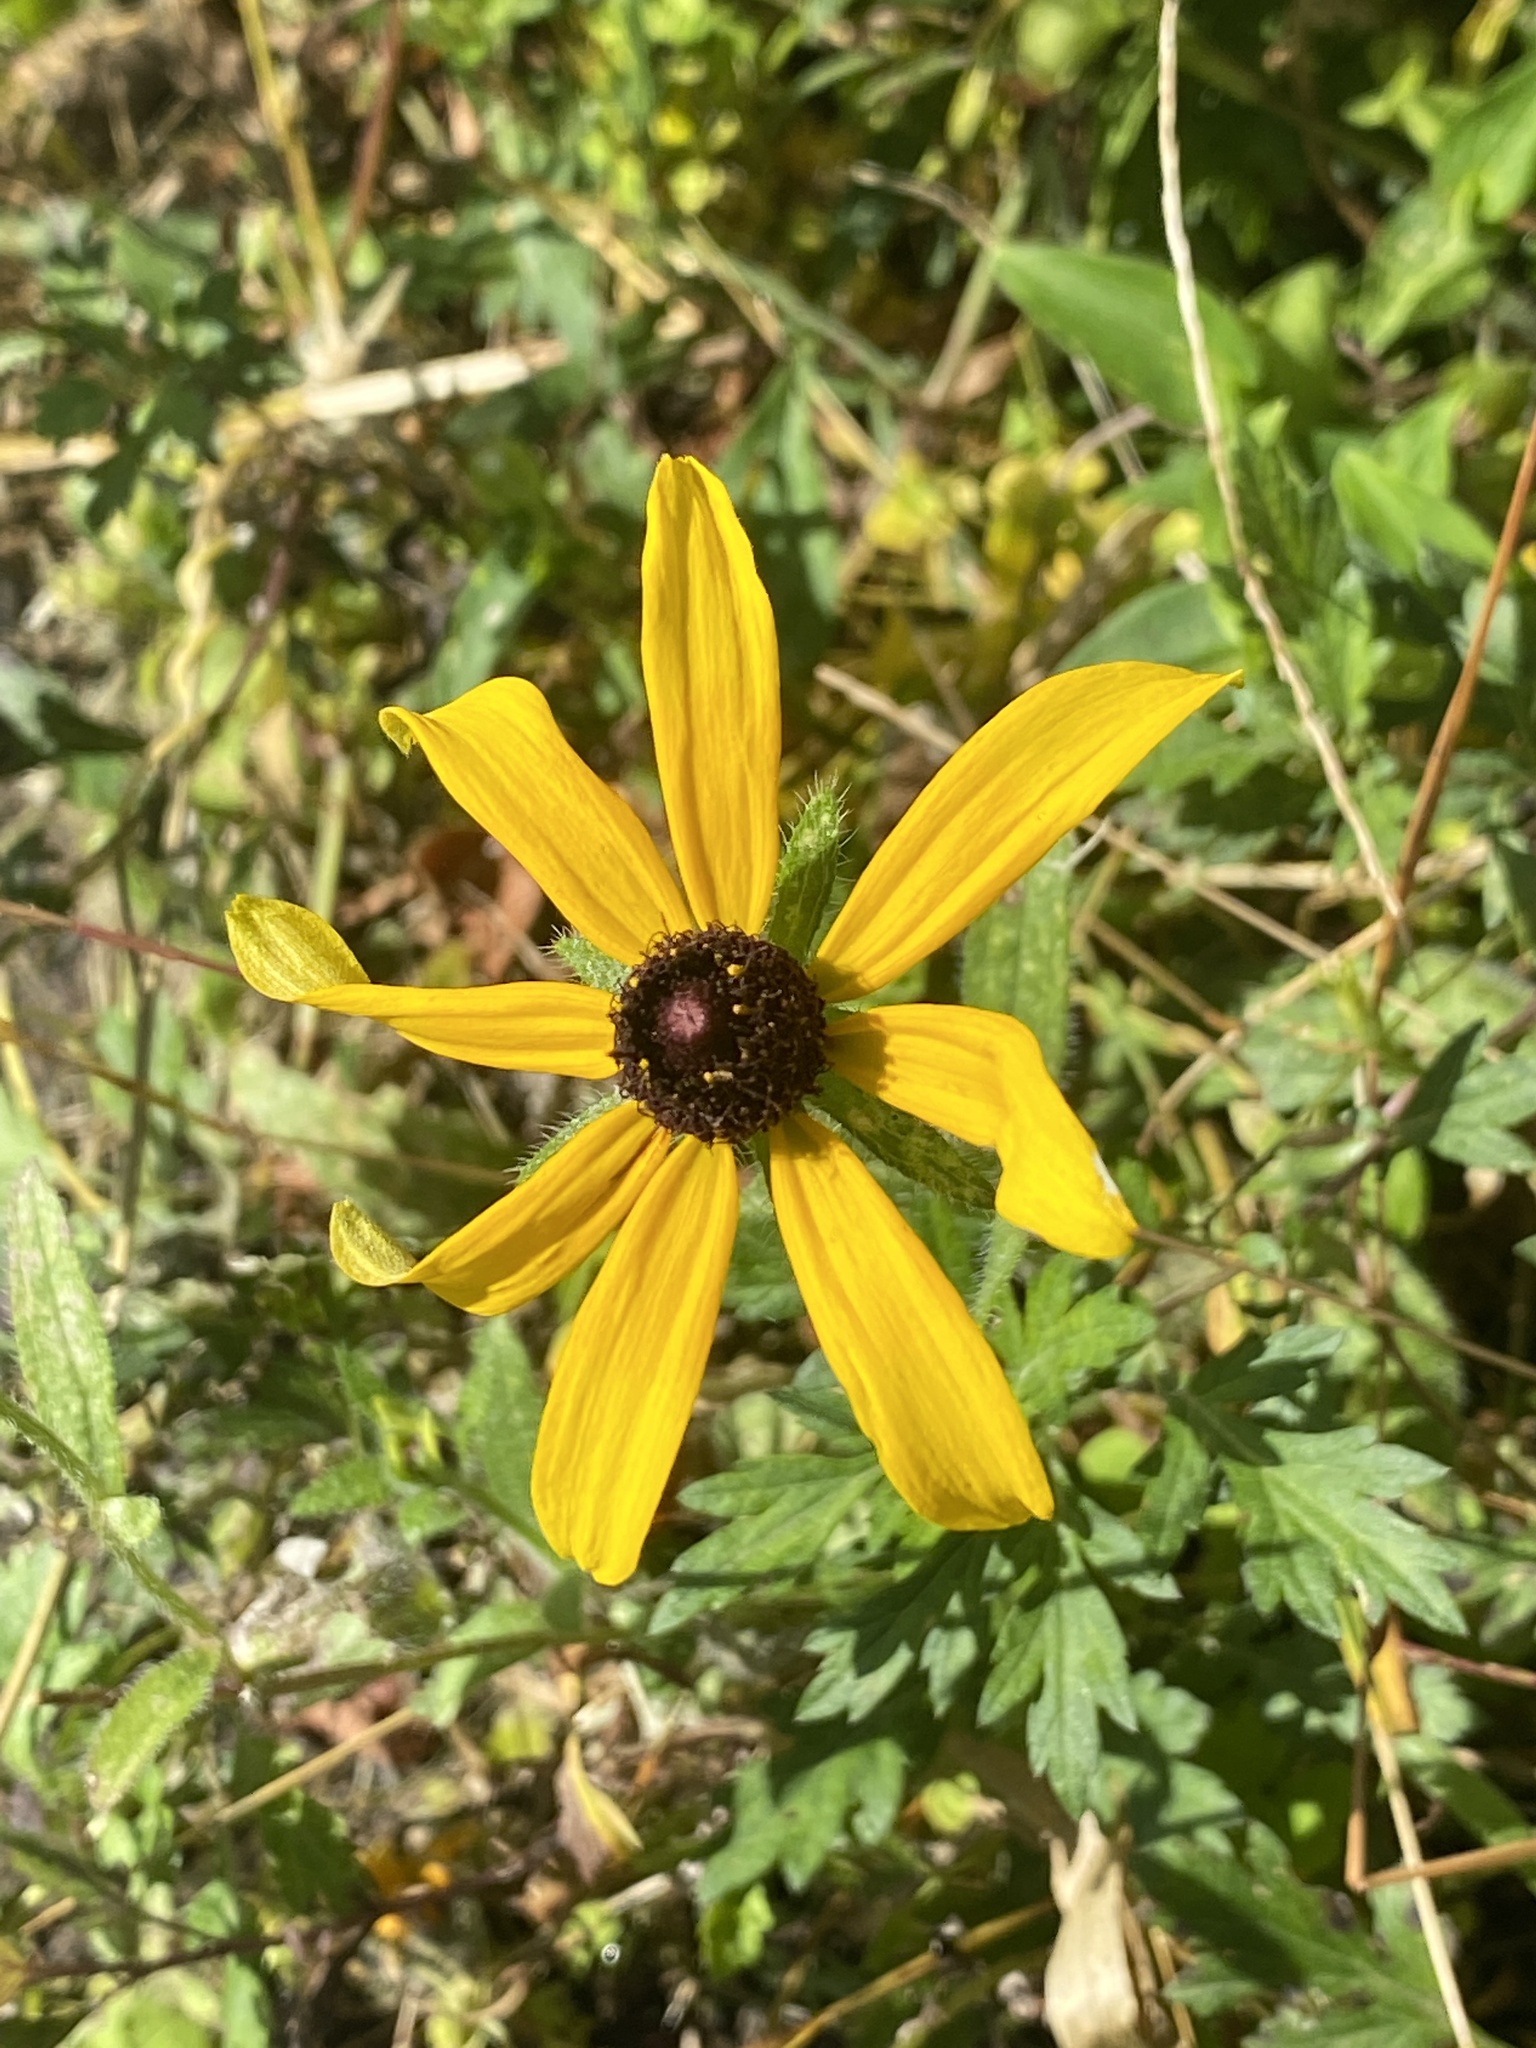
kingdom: Plantae
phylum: Tracheophyta
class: Magnoliopsida
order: Asterales
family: Asteraceae
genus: Rudbeckia
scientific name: Rudbeckia hirta
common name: Black-eyed-susan
